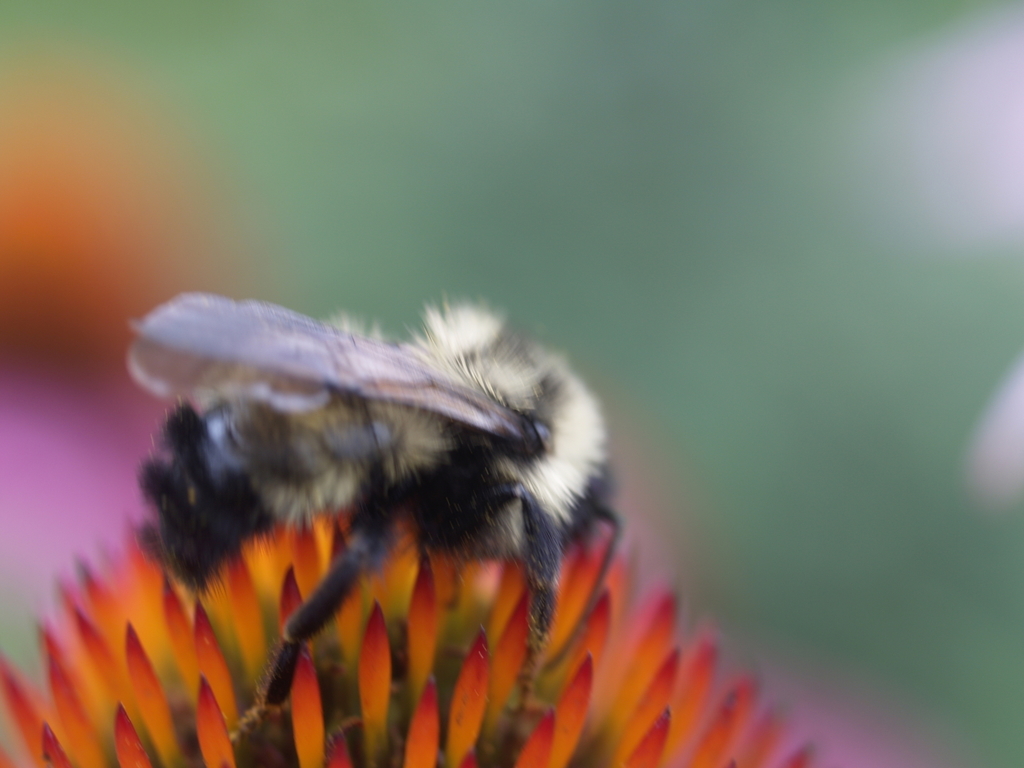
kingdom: Animalia
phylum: Arthropoda
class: Insecta
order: Hymenoptera
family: Apidae
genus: Bombus
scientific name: Bombus citrinus
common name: Lemon cuckoo bumble bee
